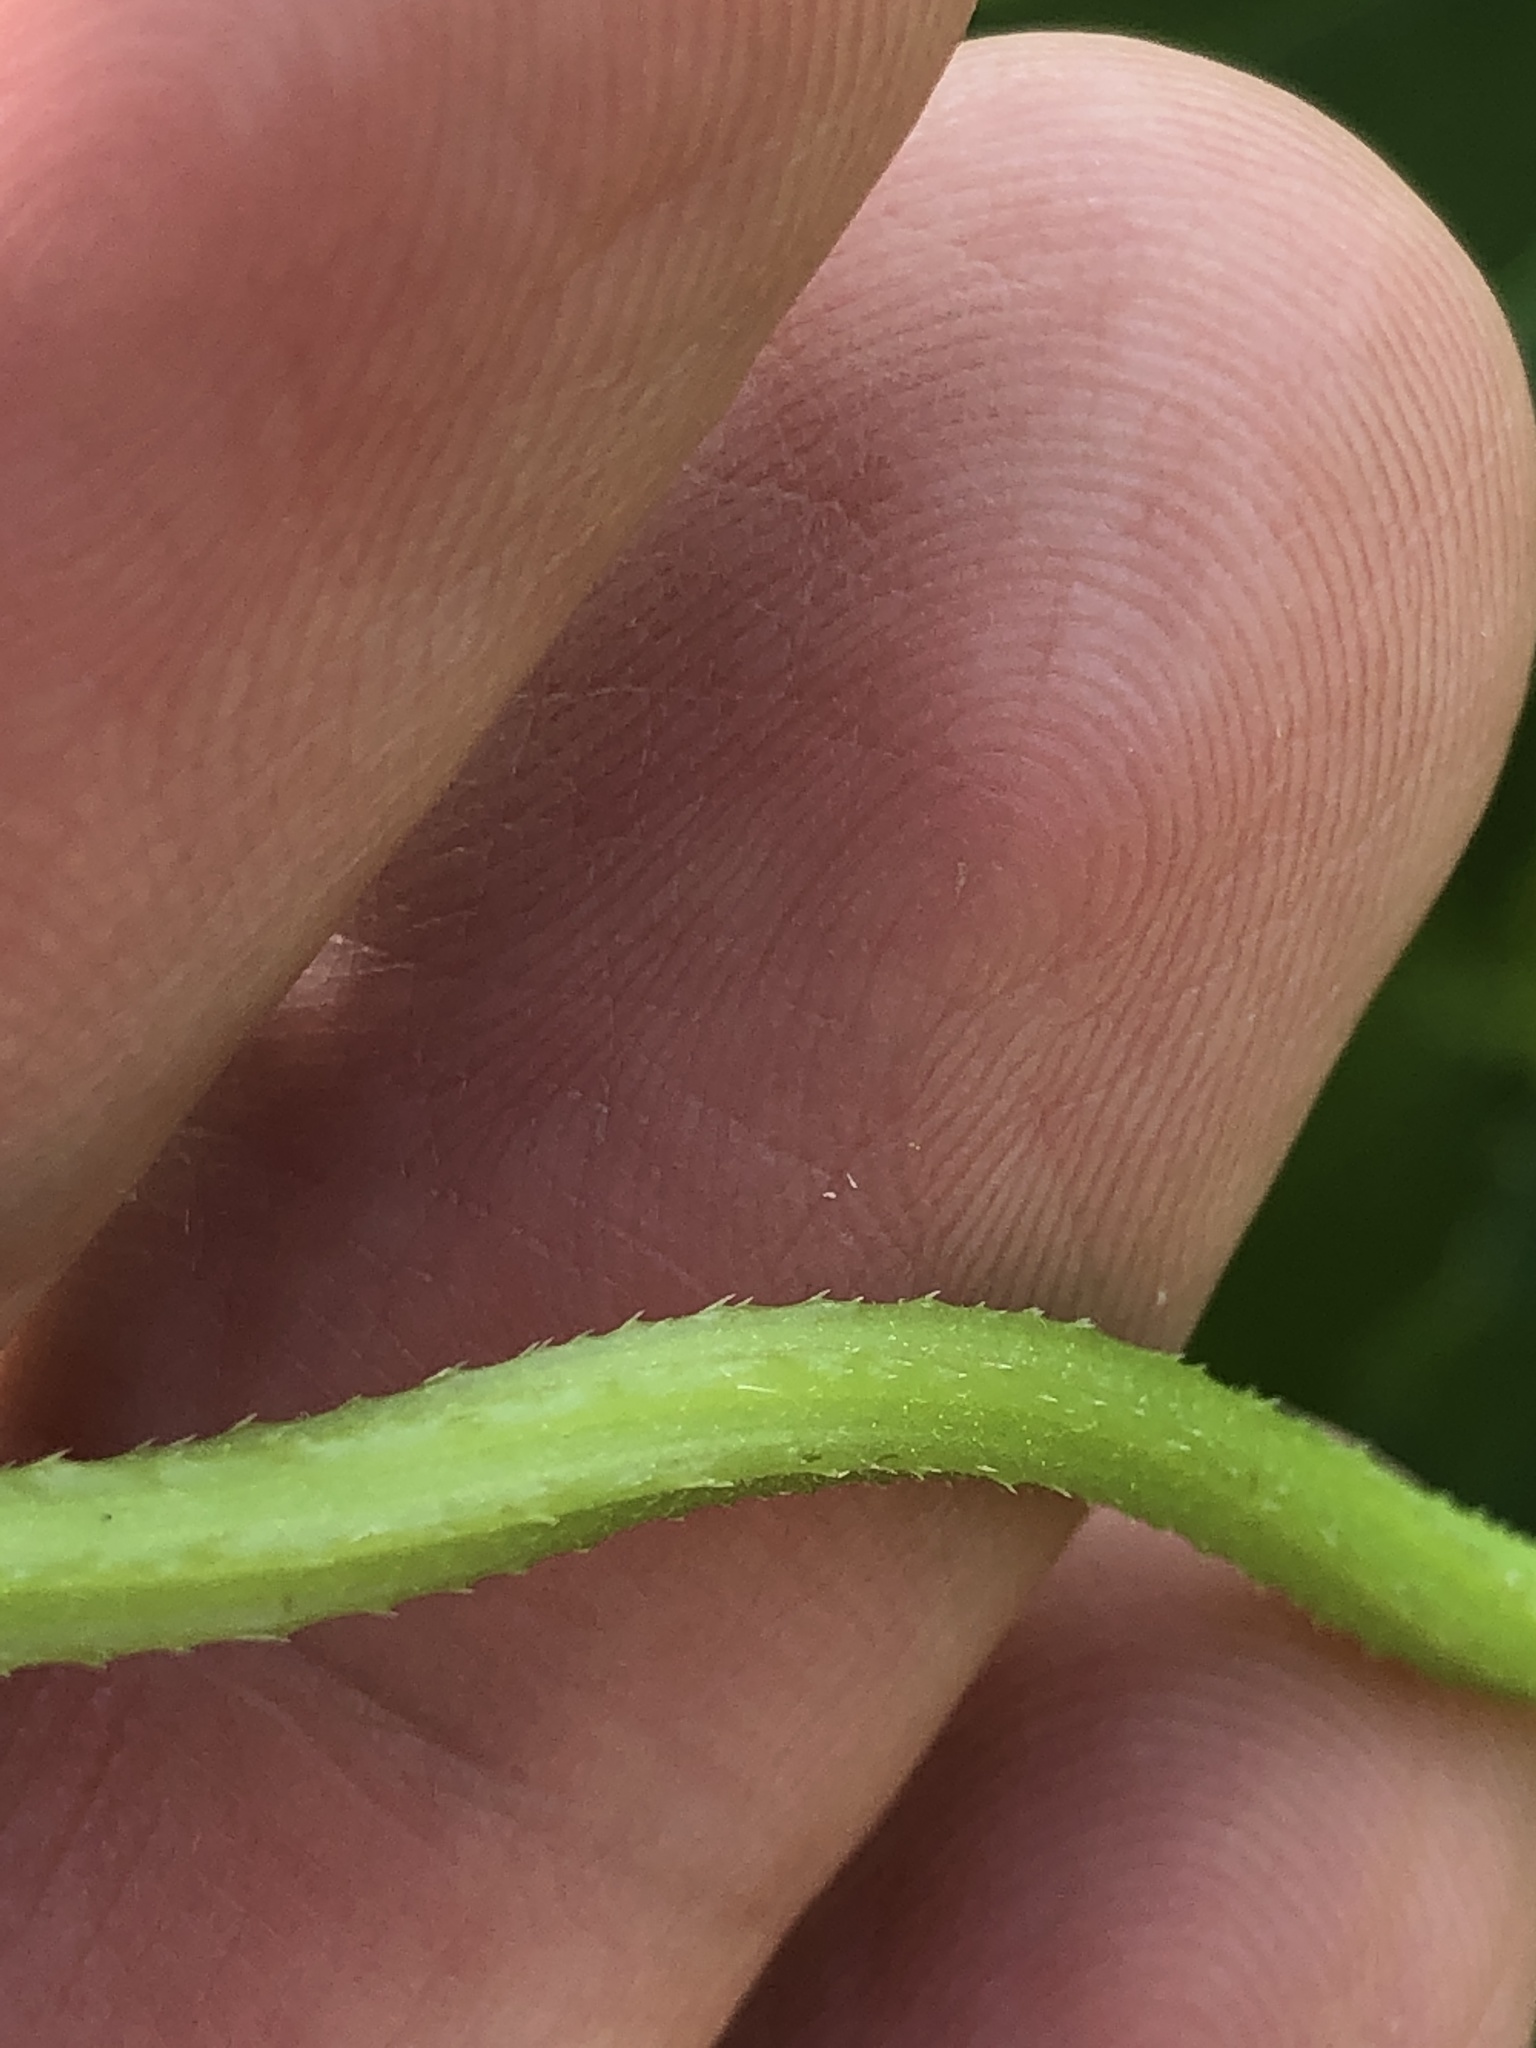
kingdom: Plantae
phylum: Tracheophyta
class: Magnoliopsida
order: Rosales
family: Cannabaceae
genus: Humulus
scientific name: Humulus scandens
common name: Japanese hop
